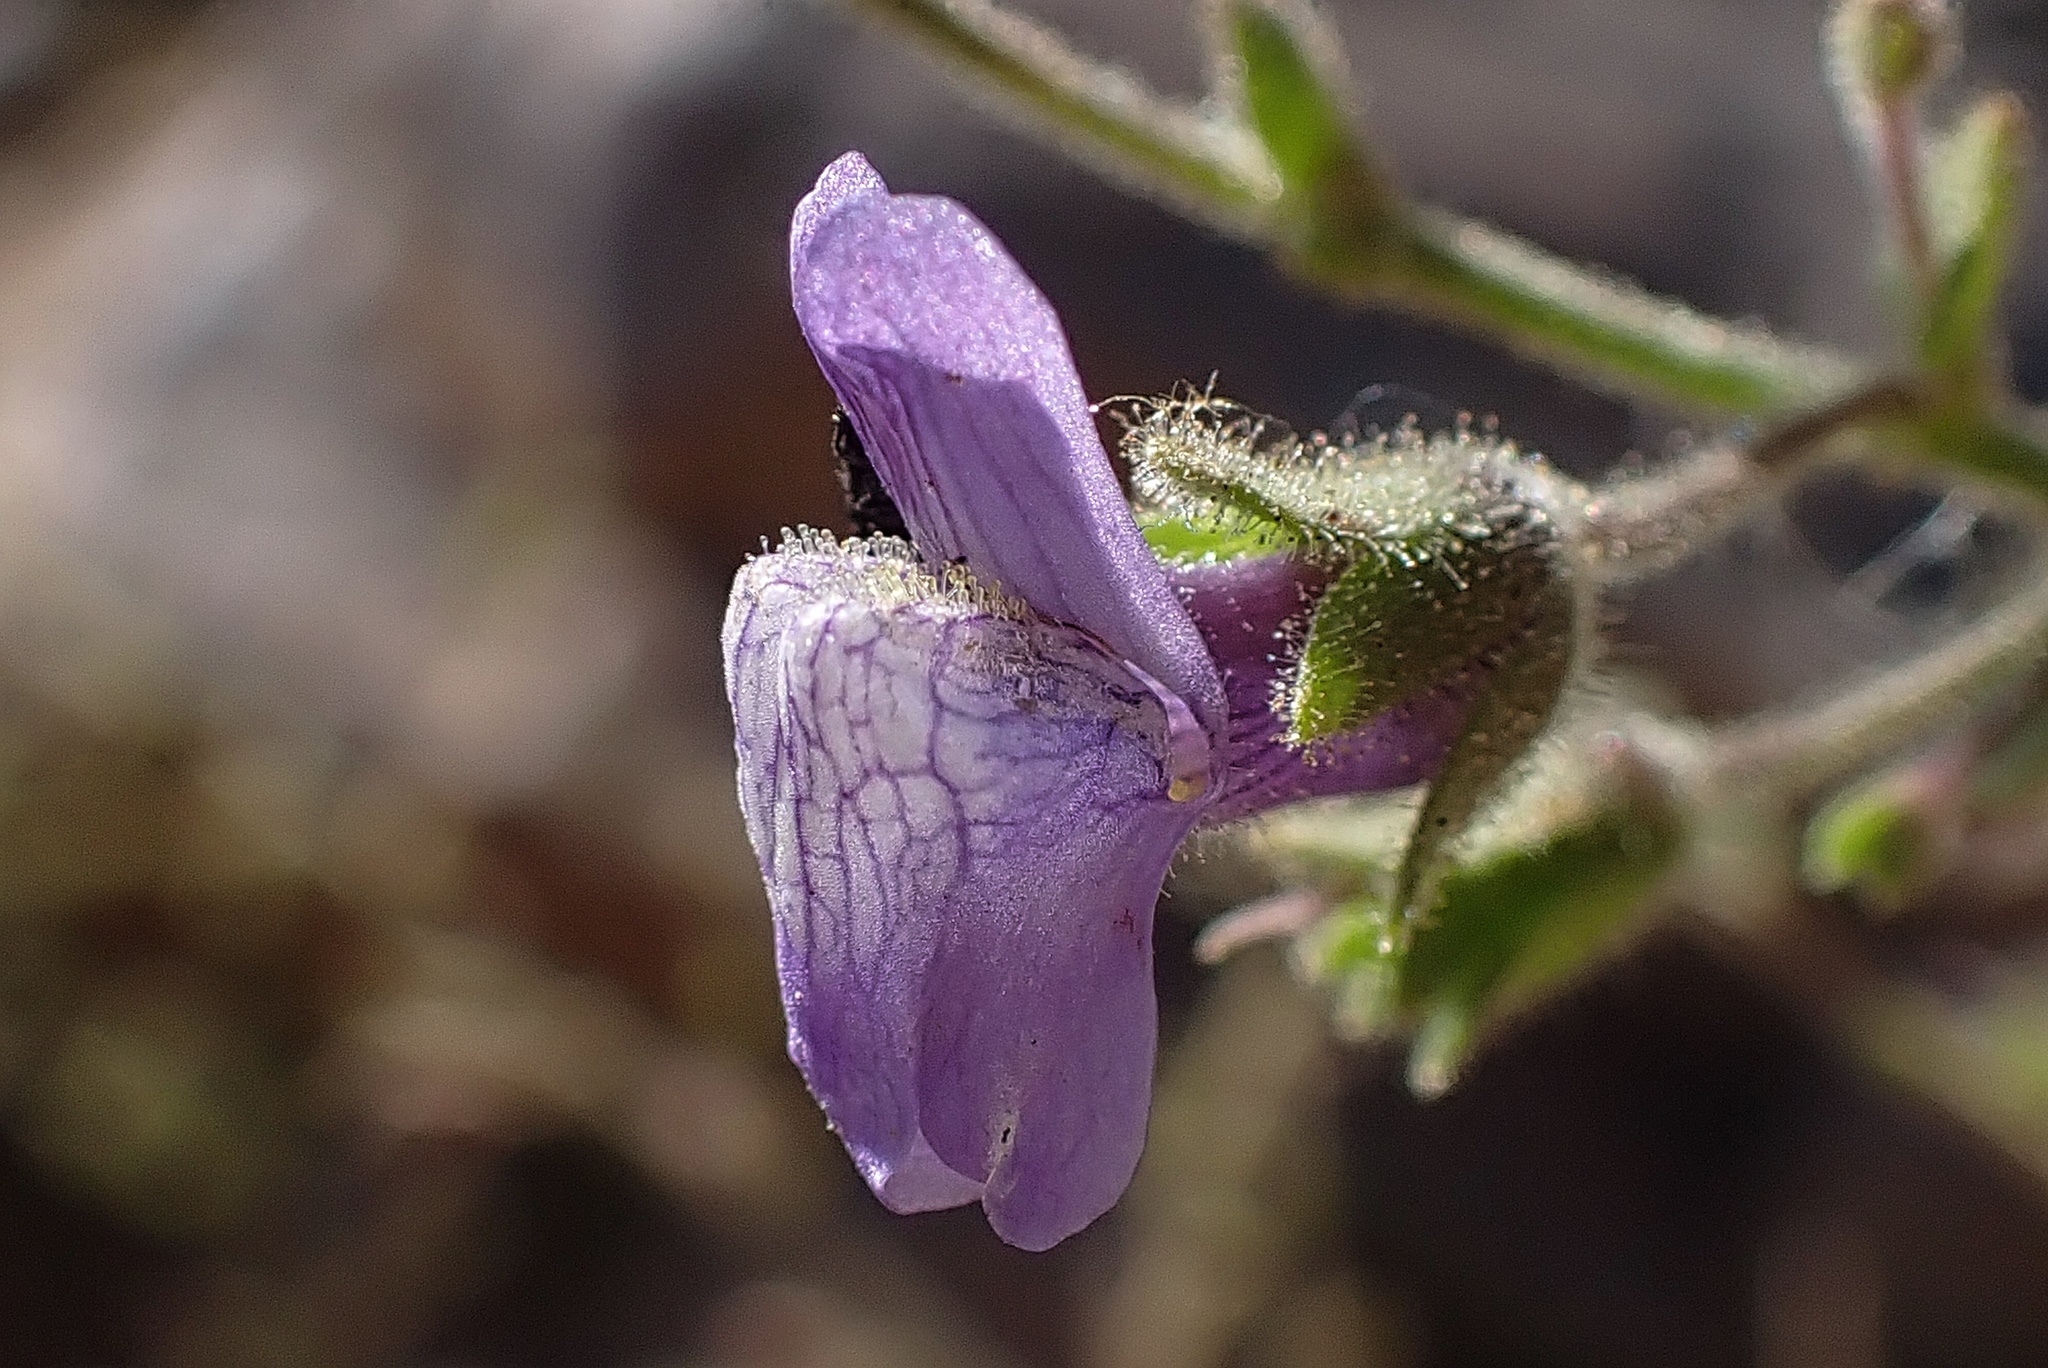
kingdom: Plantae
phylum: Tracheophyta
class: Magnoliopsida
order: Lamiales
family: Plantaginaceae
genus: Sairocarpus
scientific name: Sairocarpus nuttallianus
